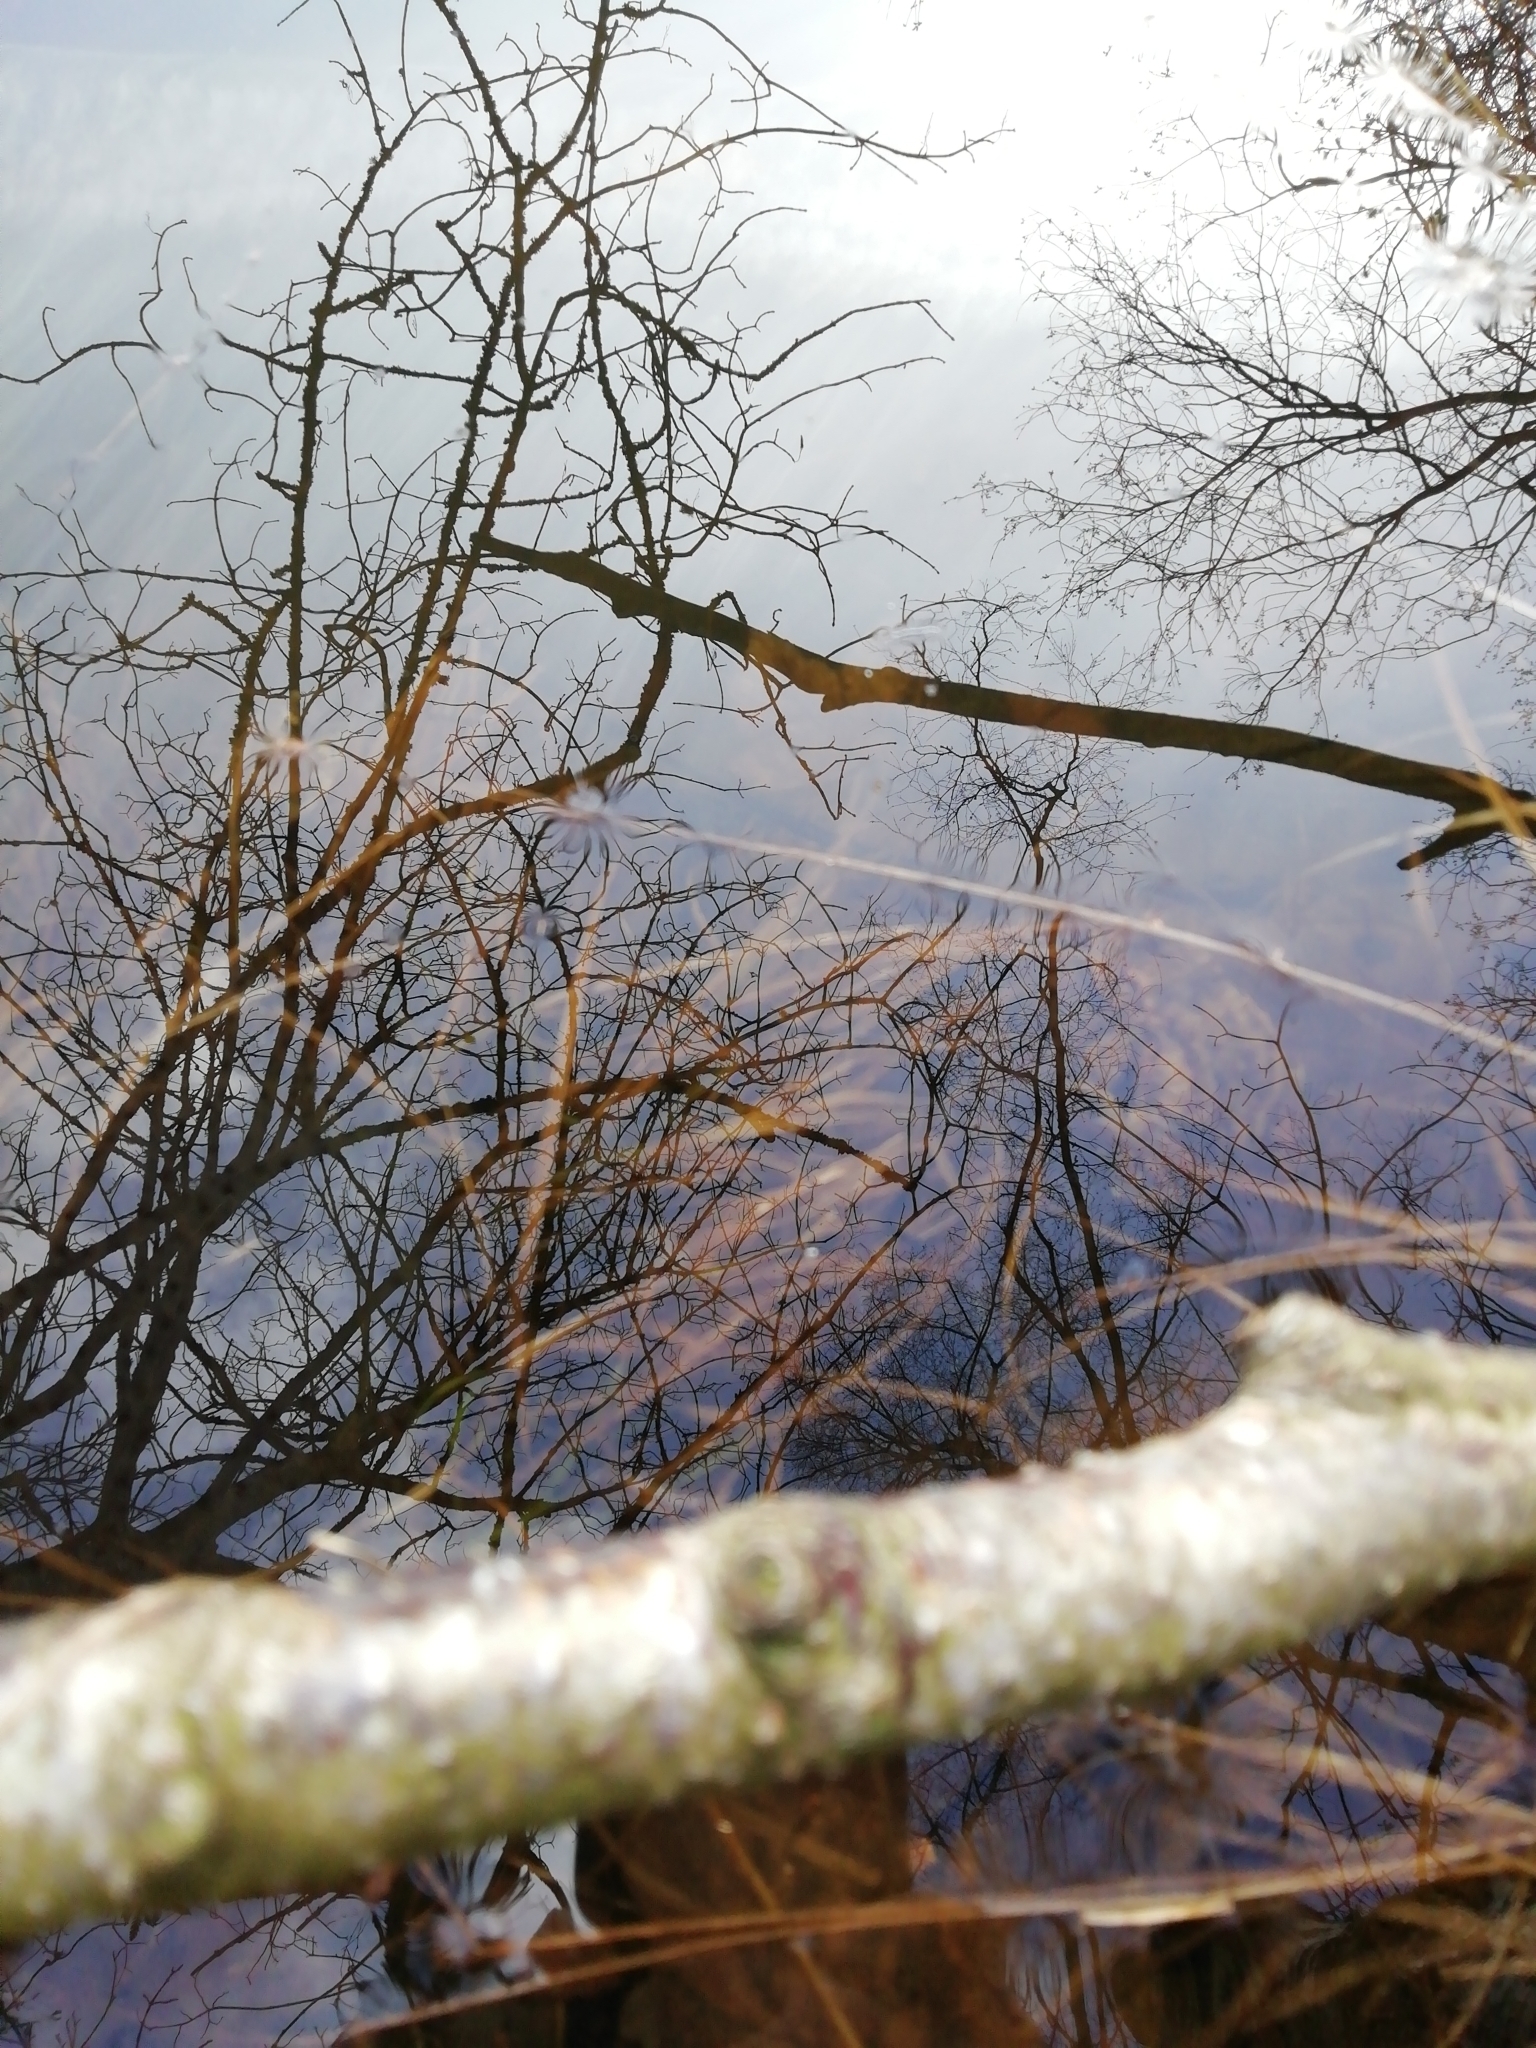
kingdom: Animalia
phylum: Chordata
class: Amphibia
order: Anura
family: Bufonidae
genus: Bufo
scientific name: Bufo bufo
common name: Common toad
